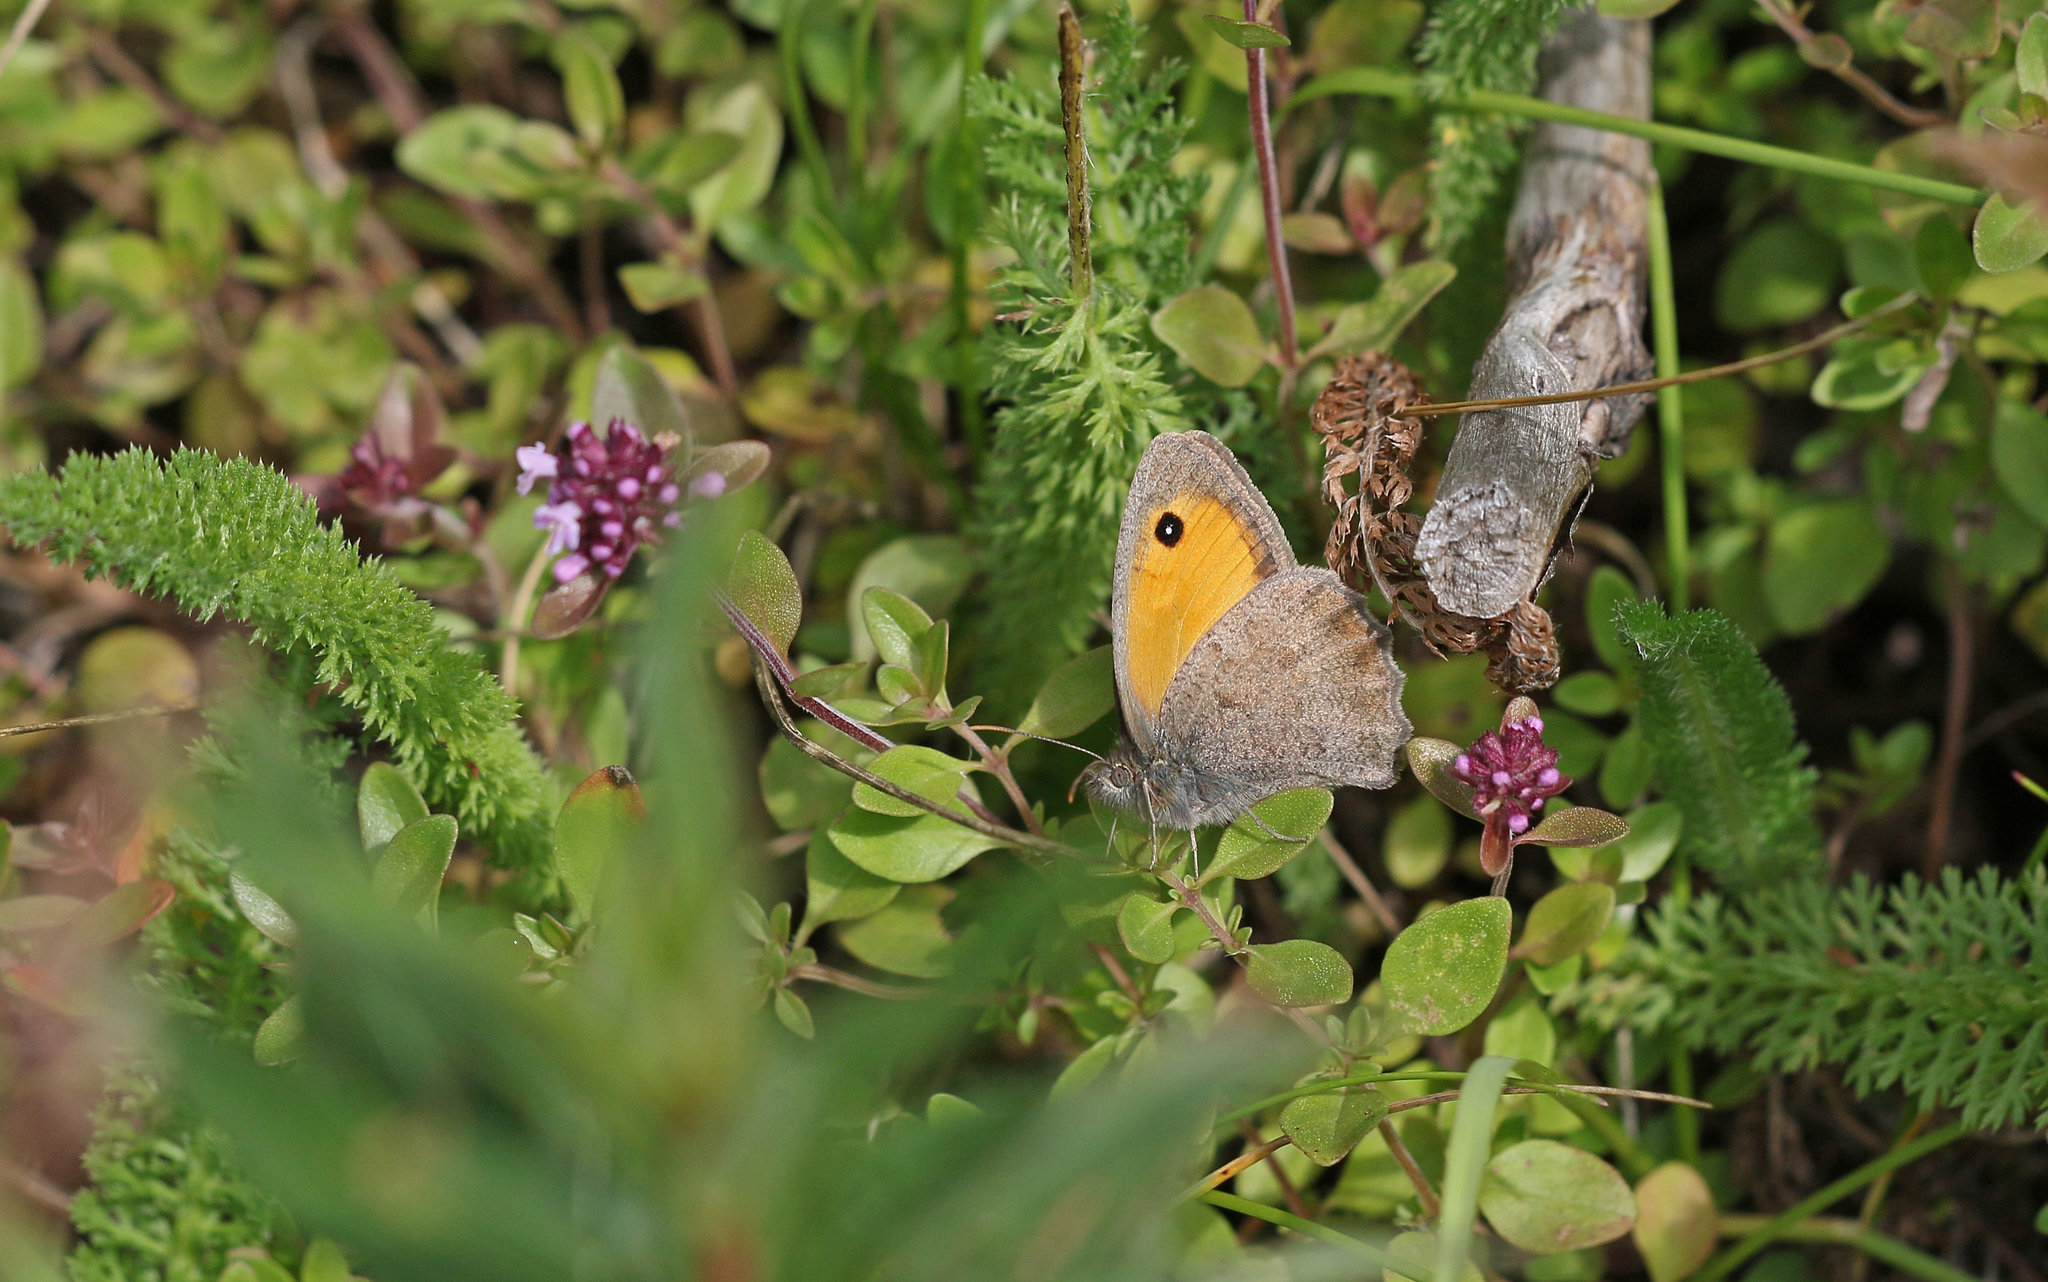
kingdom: Animalia
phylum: Arthropoda
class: Insecta
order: Lepidoptera
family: Nymphalidae
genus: Hyponephele
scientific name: Hyponephele lycaon
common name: Dusky meadow brown
